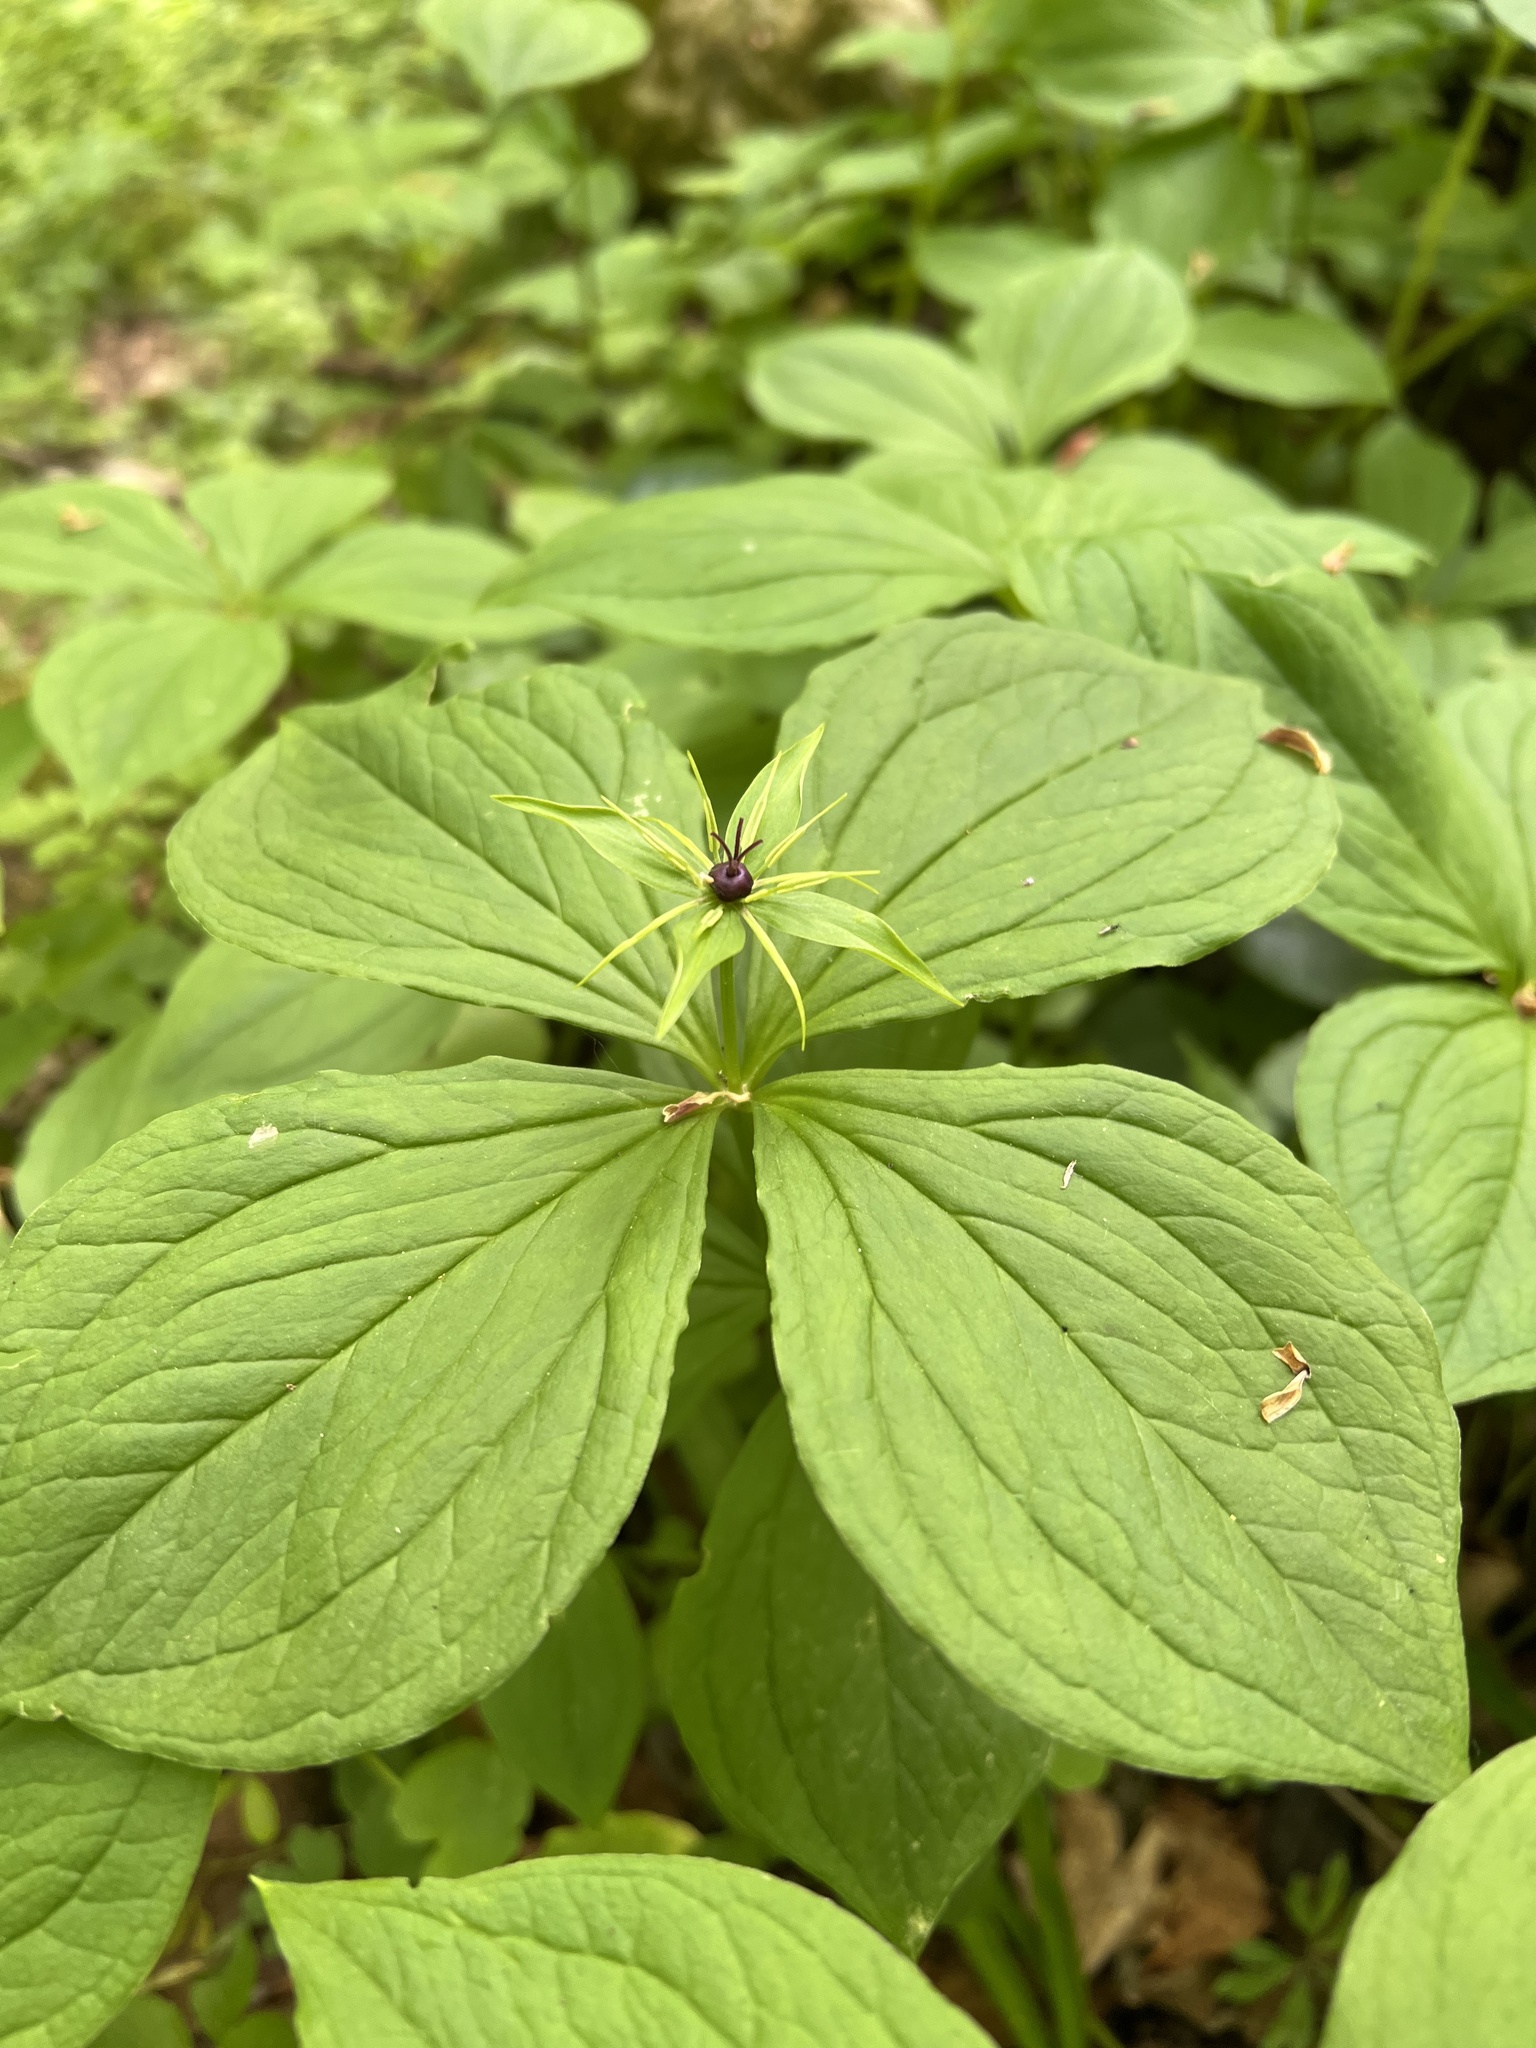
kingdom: Plantae
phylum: Tracheophyta
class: Liliopsida
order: Liliales
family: Melanthiaceae
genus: Paris
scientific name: Paris quadrifolia
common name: Herb-paris
